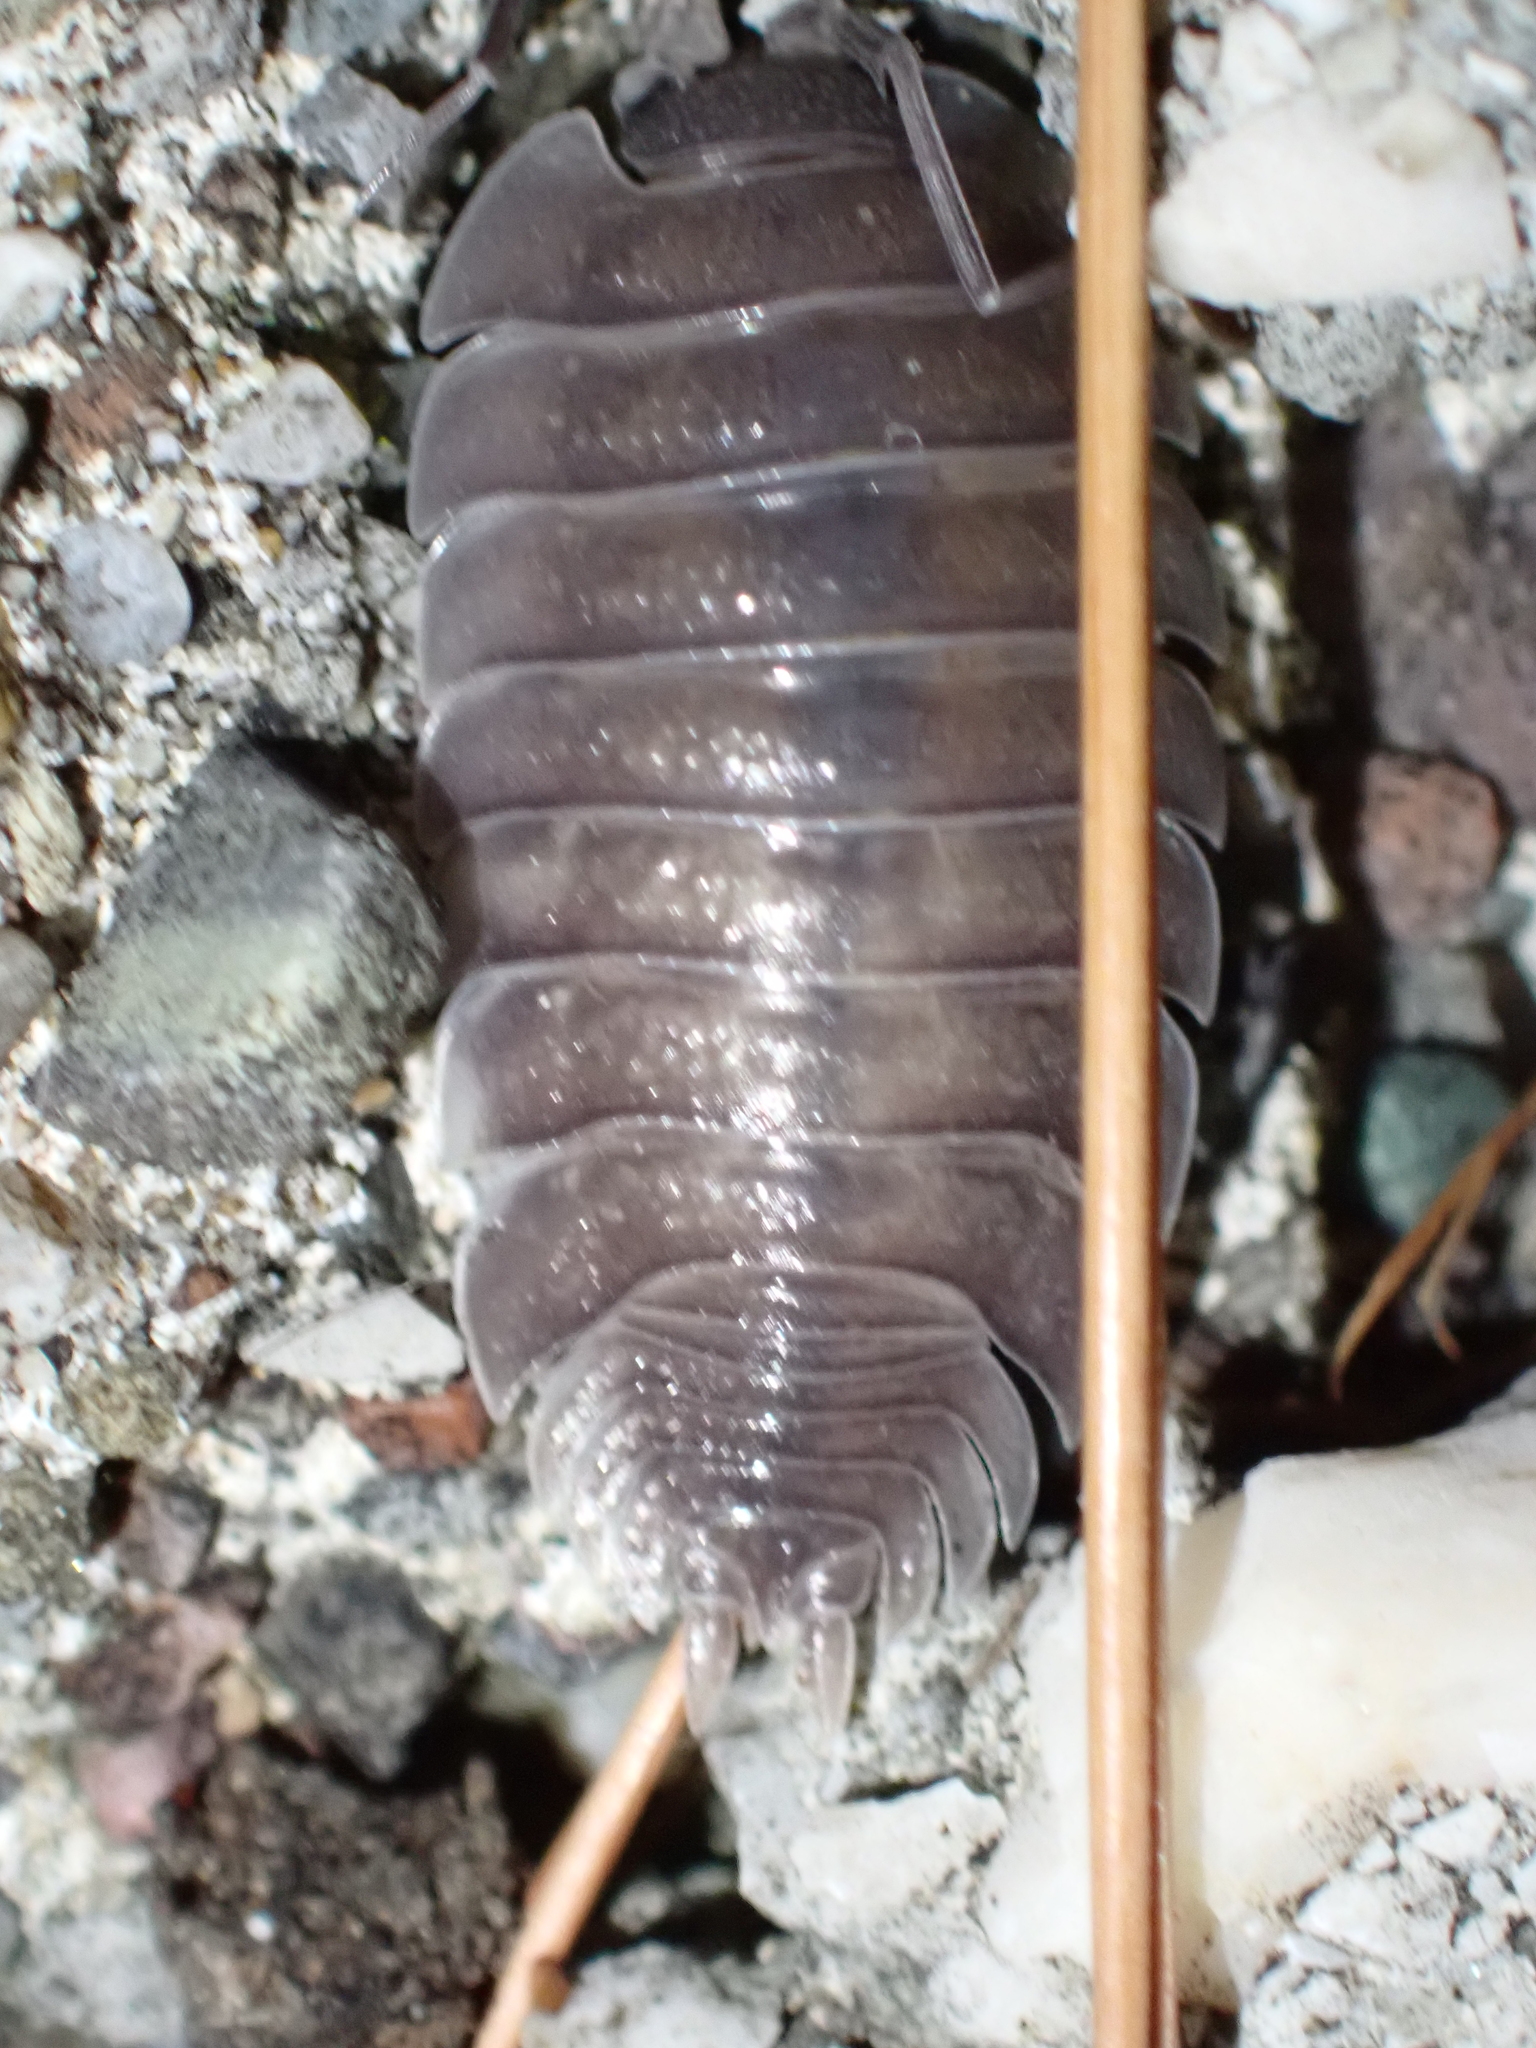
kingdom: Animalia
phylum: Arthropoda
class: Malacostraca
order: Isopoda
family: Porcellionidae
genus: Porcellio
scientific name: Porcellio obsoletus
